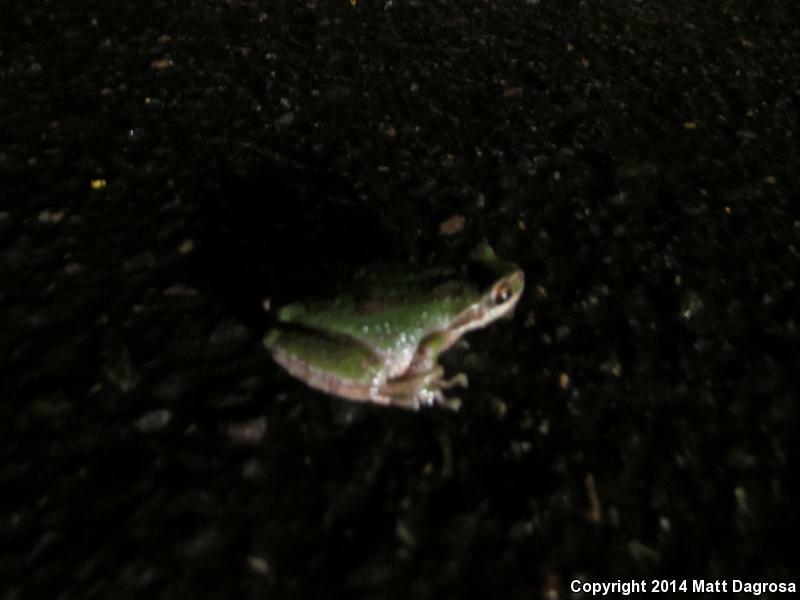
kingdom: Animalia
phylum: Chordata
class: Amphibia
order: Anura
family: Hylidae
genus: Pseudacris
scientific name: Pseudacris regilla
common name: Pacific chorus frog
